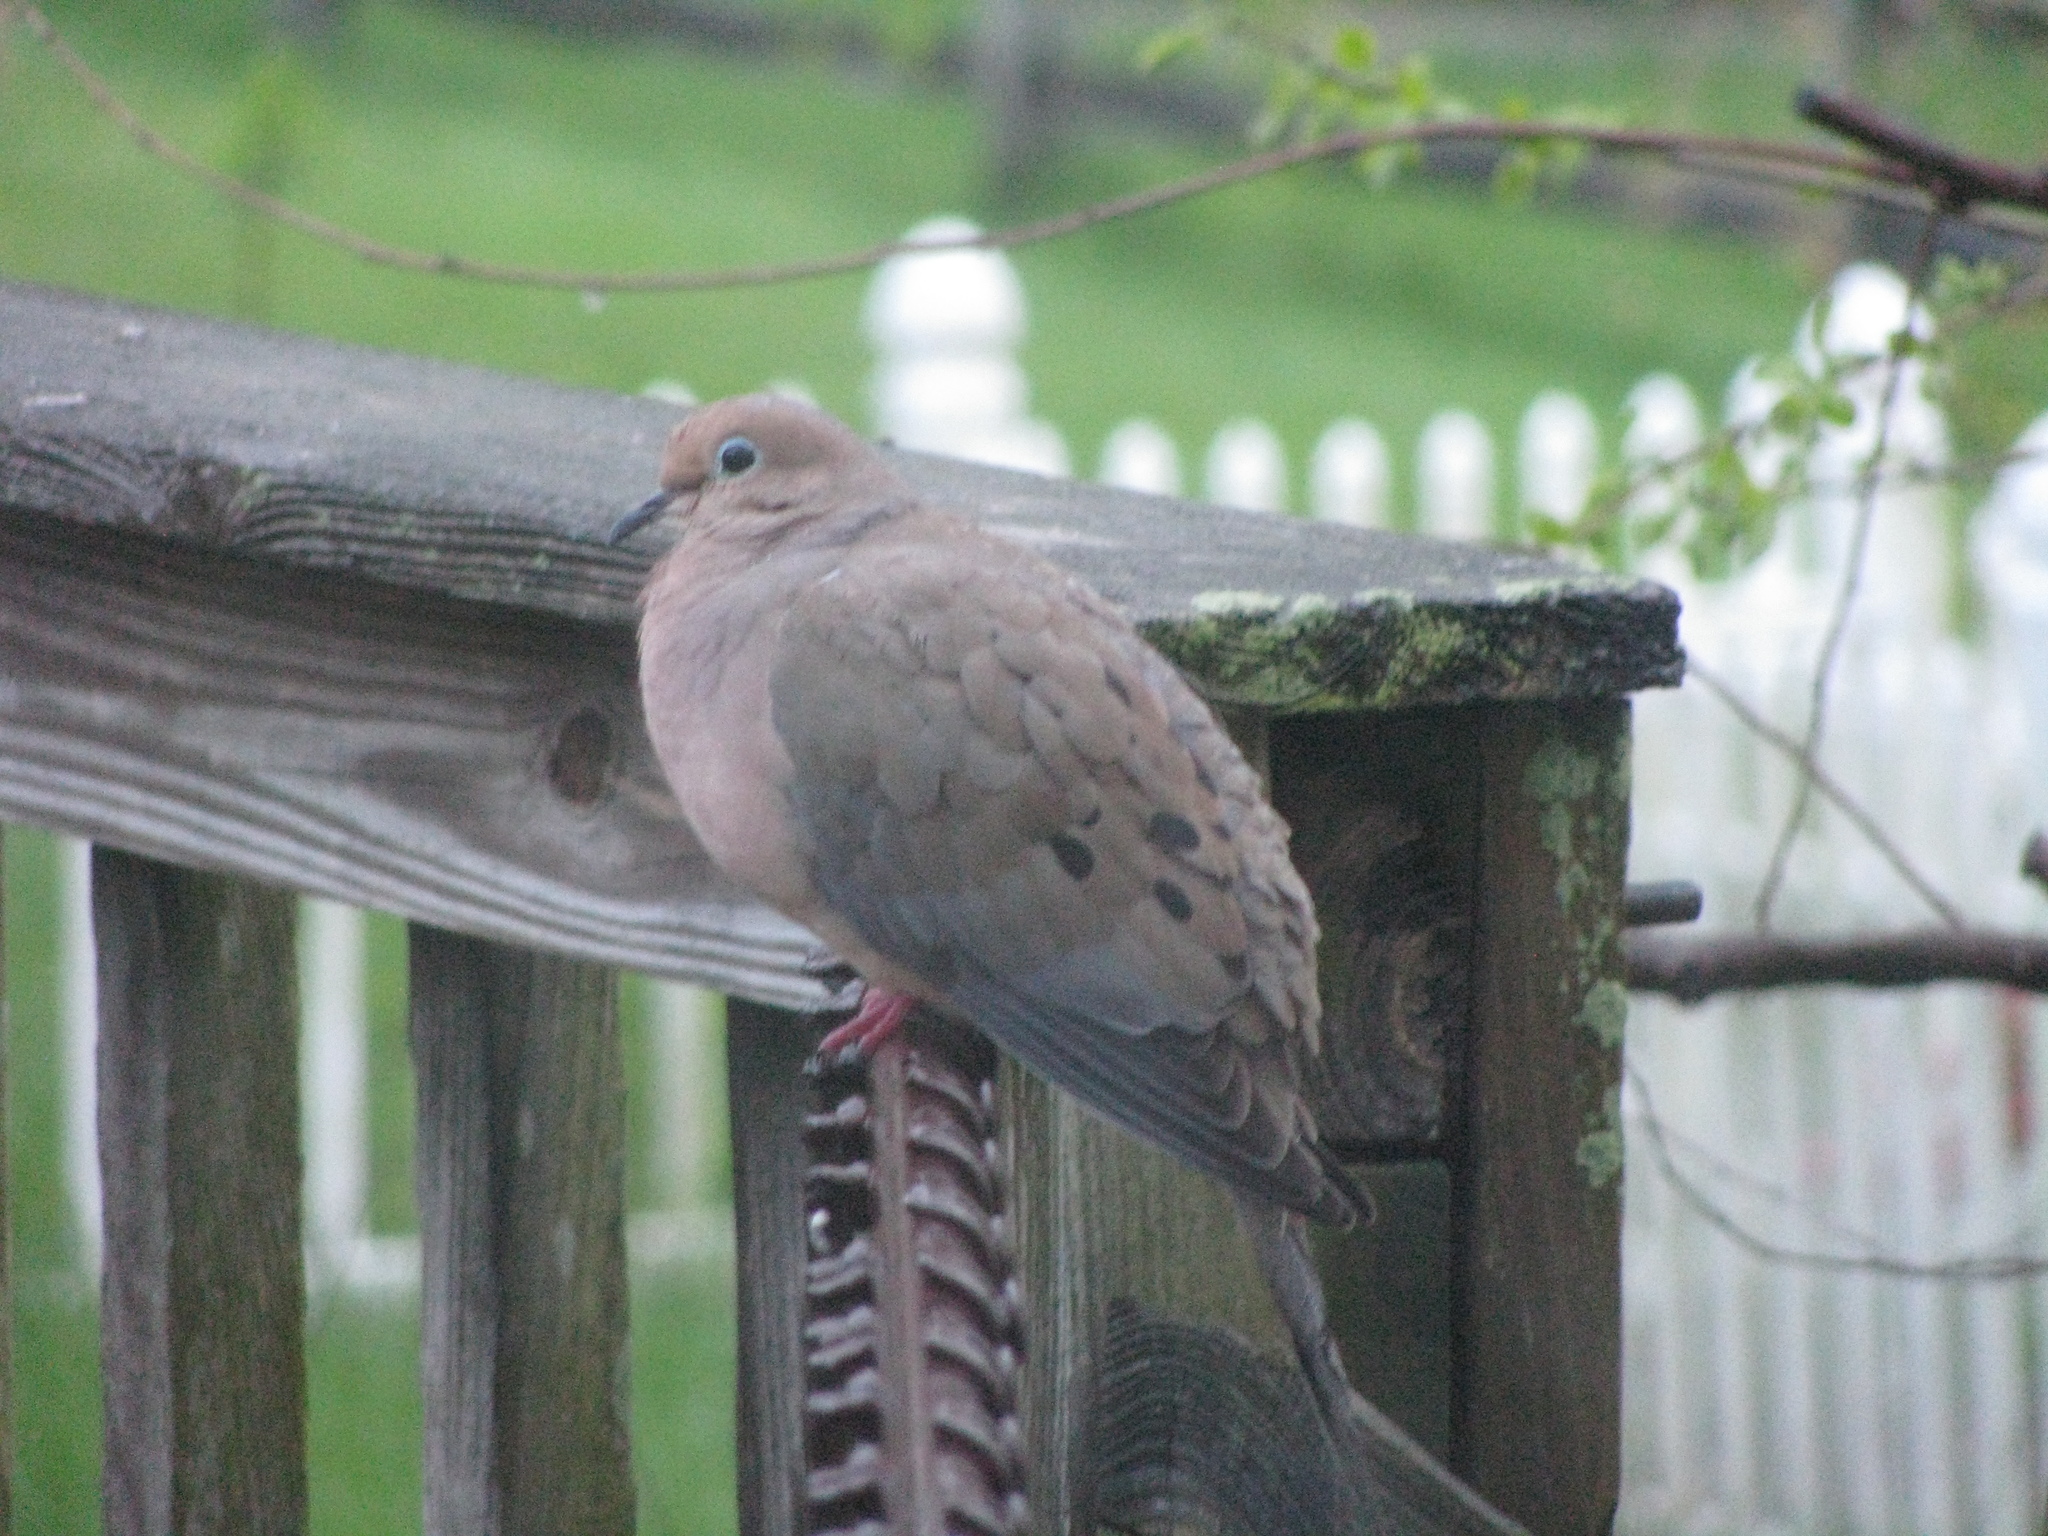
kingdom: Animalia
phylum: Chordata
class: Aves
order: Columbiformes
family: Columbidae
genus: Zenaida
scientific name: Zenaida macroura
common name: Mourning dove
